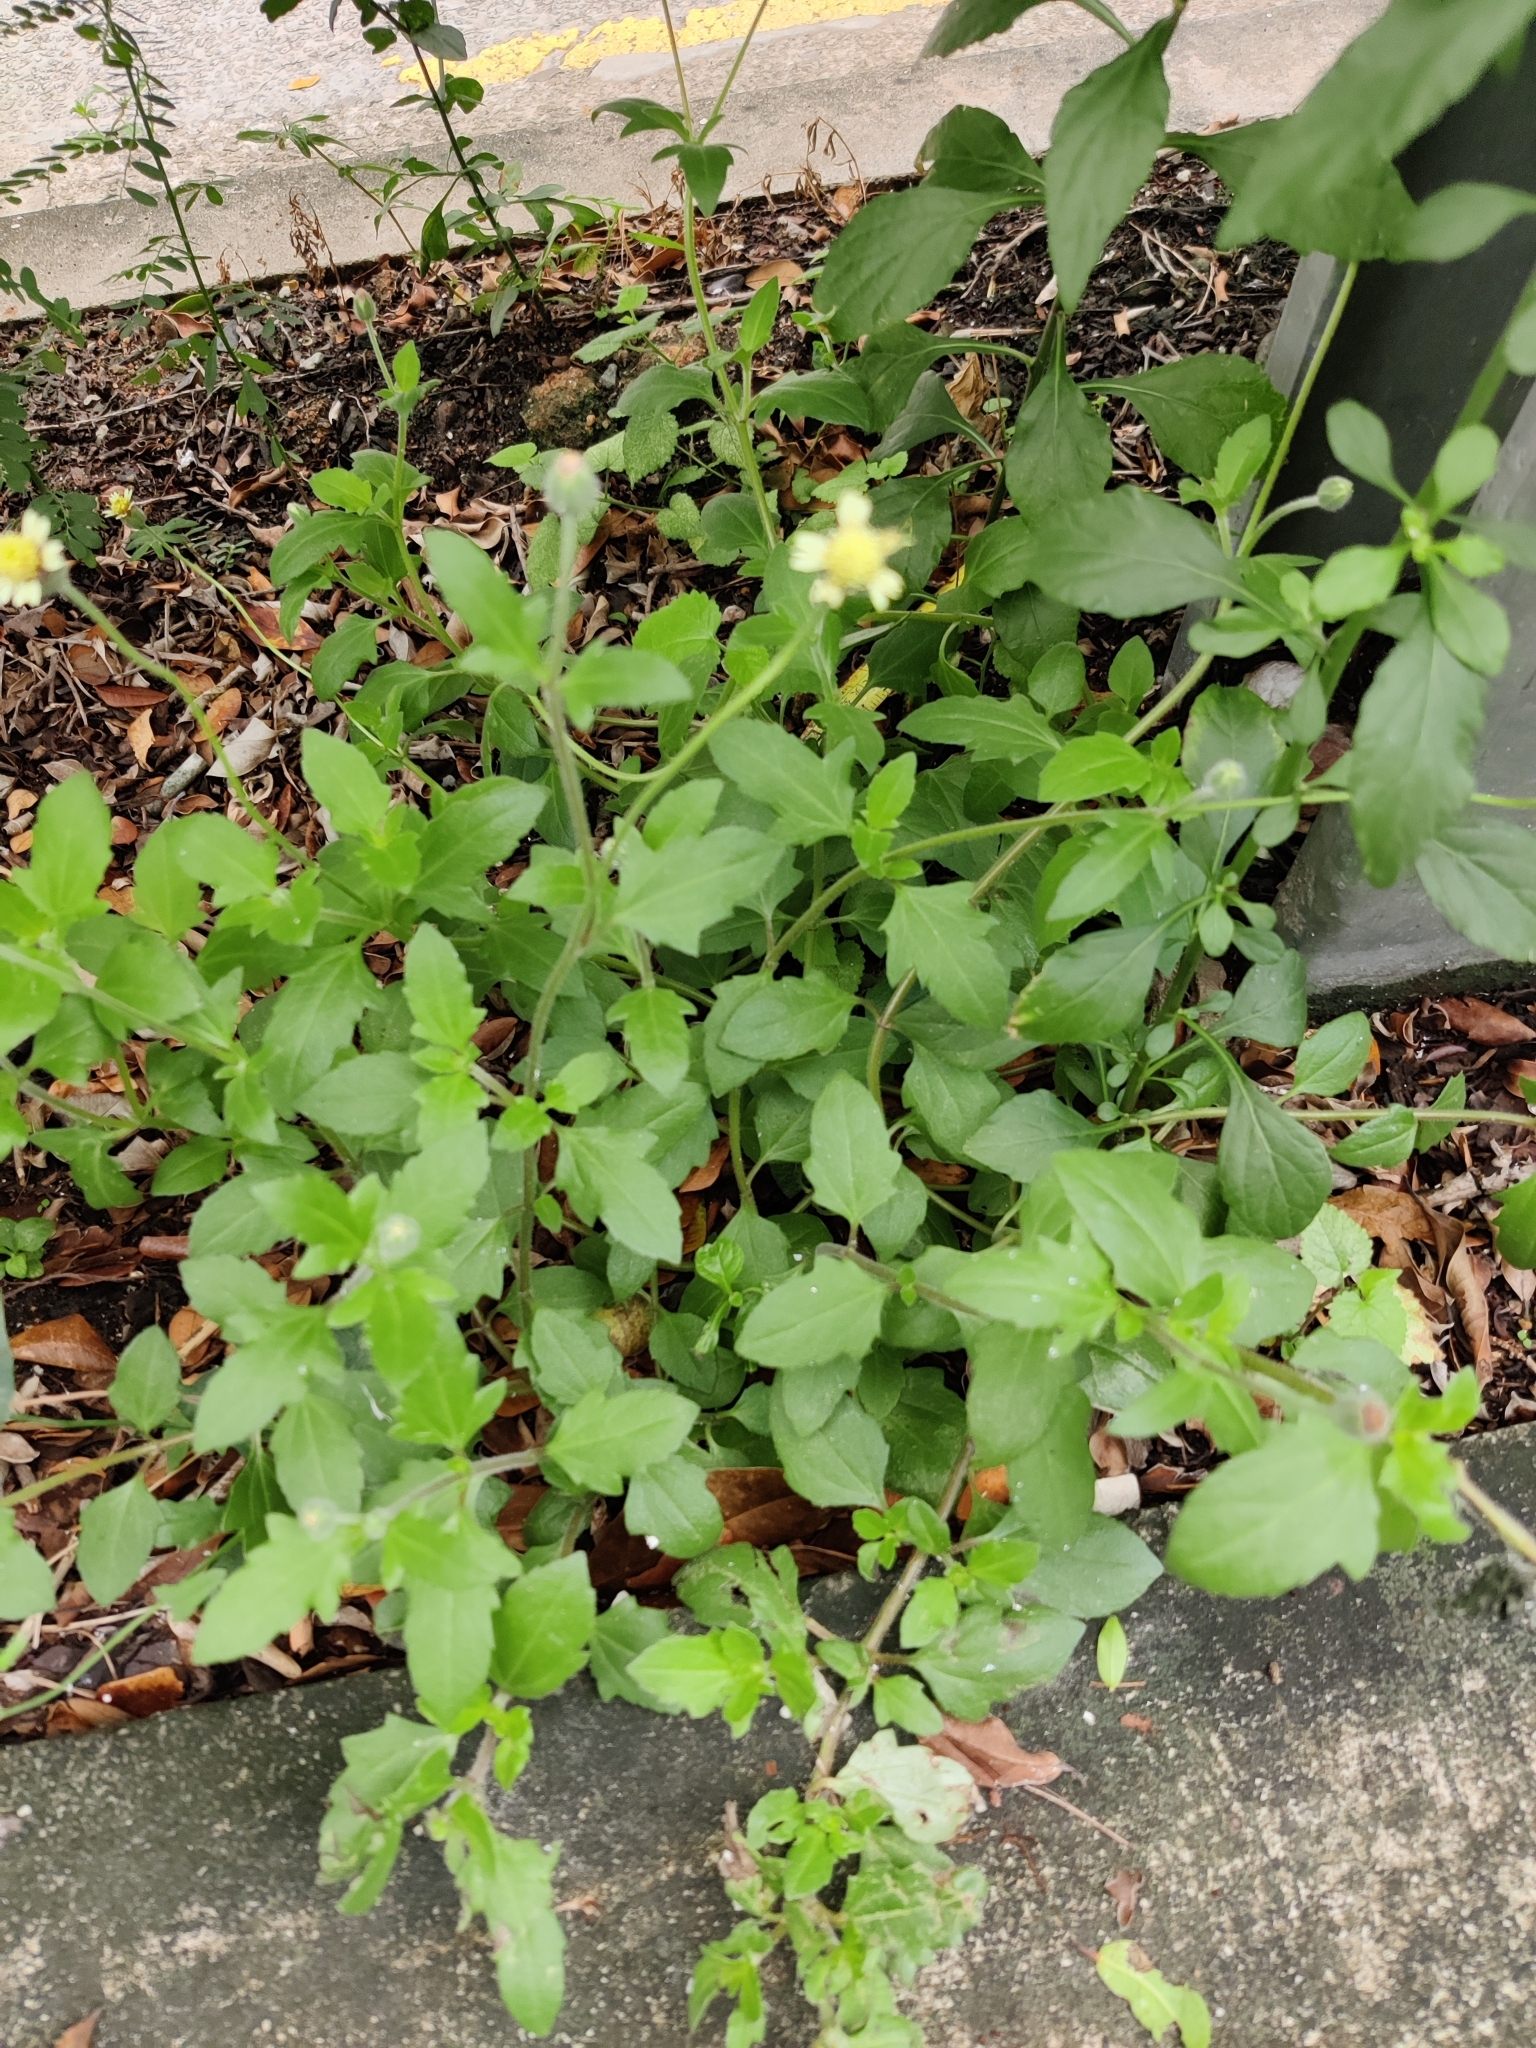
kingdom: Plantae
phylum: Tracheophyta
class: Magnoliopsida
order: Asterales
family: Asteraceae
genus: Tridax
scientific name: Tridax procumbens
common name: Coatbuttons
